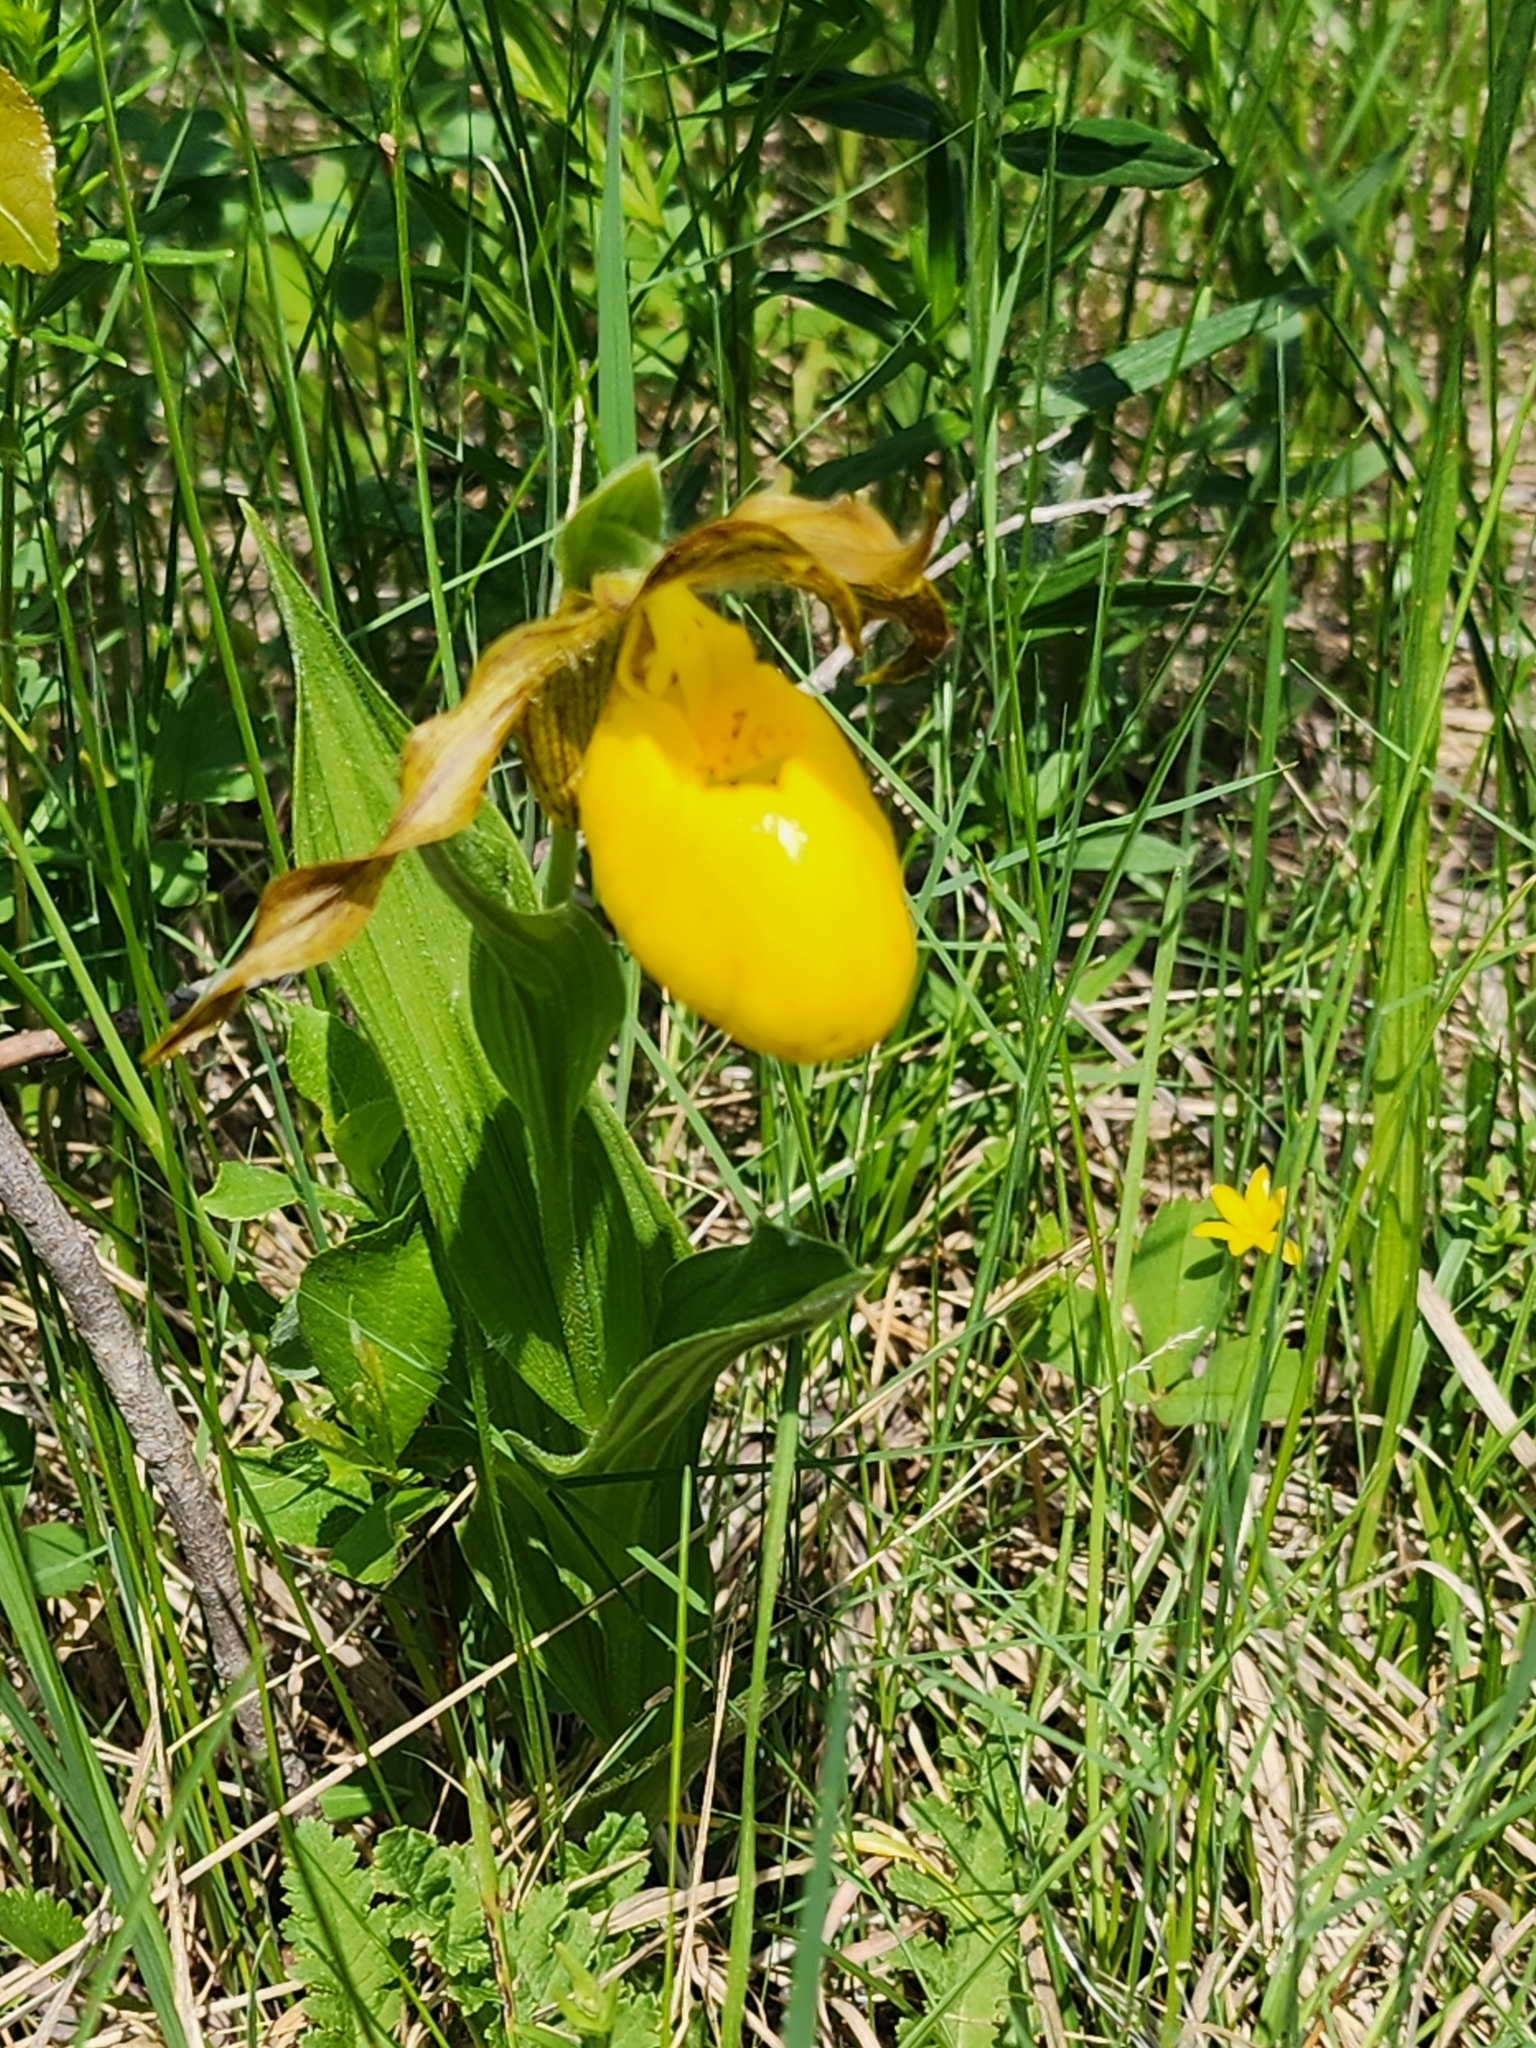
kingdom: Plantae
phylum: Tracheophyta
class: Liliopsida
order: Asparagales
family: Orchidaceae
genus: Cypripedium
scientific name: Cypripedium parviflorum
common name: American yellow lady's-slipper
